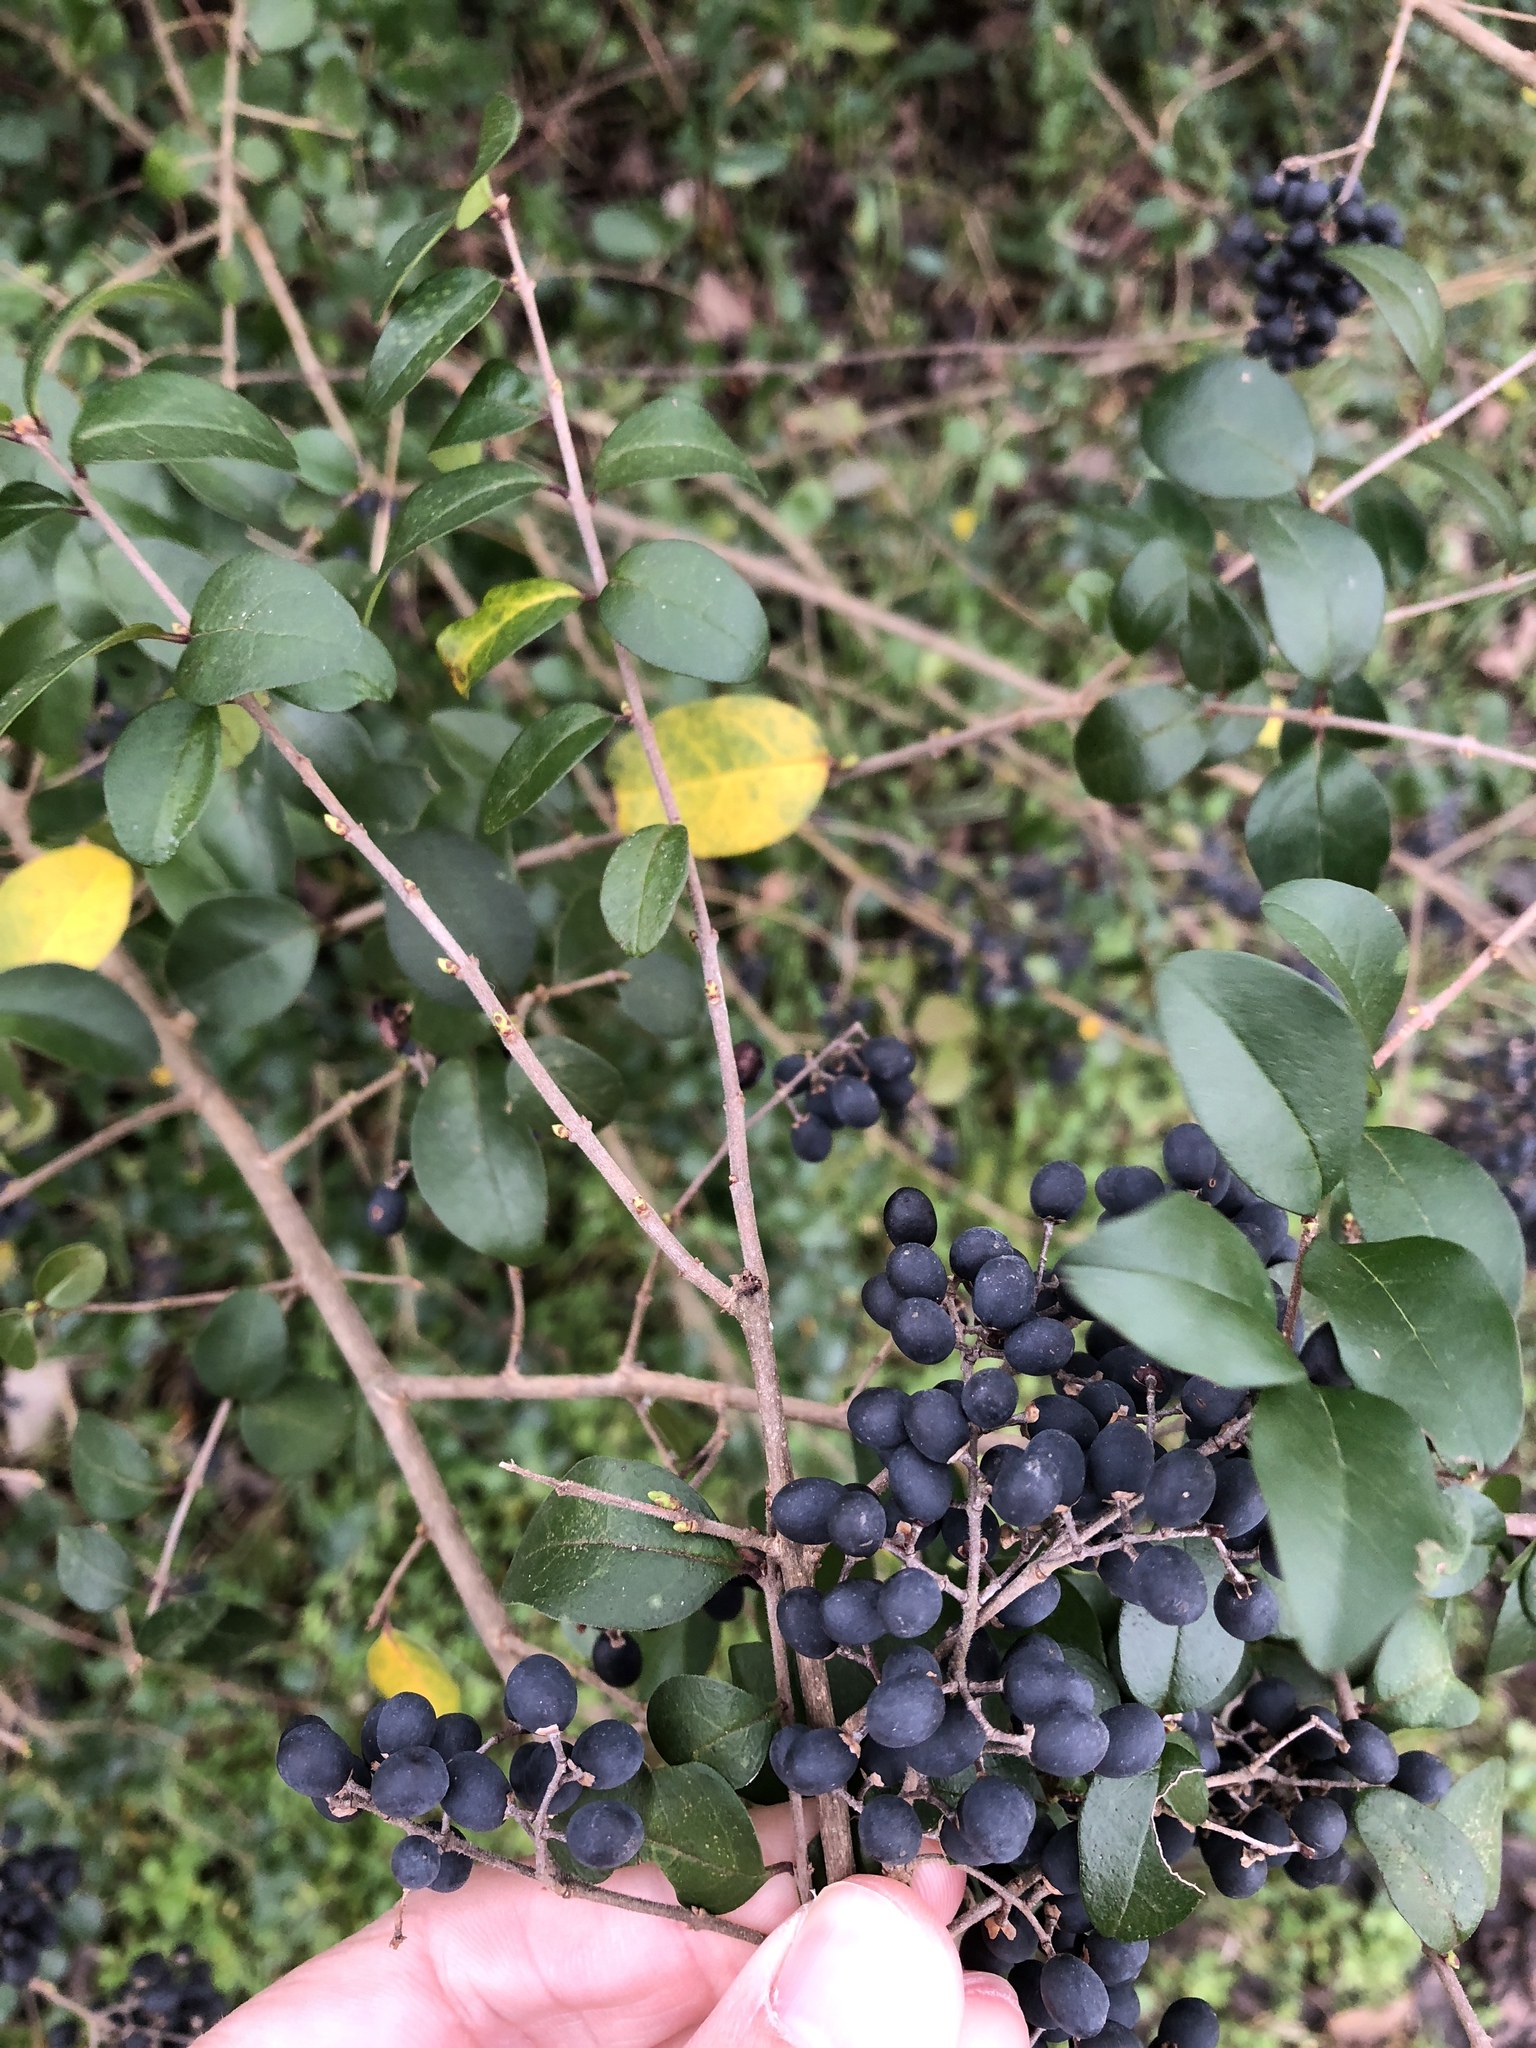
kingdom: Plantae
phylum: Tracheophyta
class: Magnoliopsida
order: Lamiales
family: Oleaceae
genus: Ligustrum
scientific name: Ligustrum sinense
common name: Chinese privet
